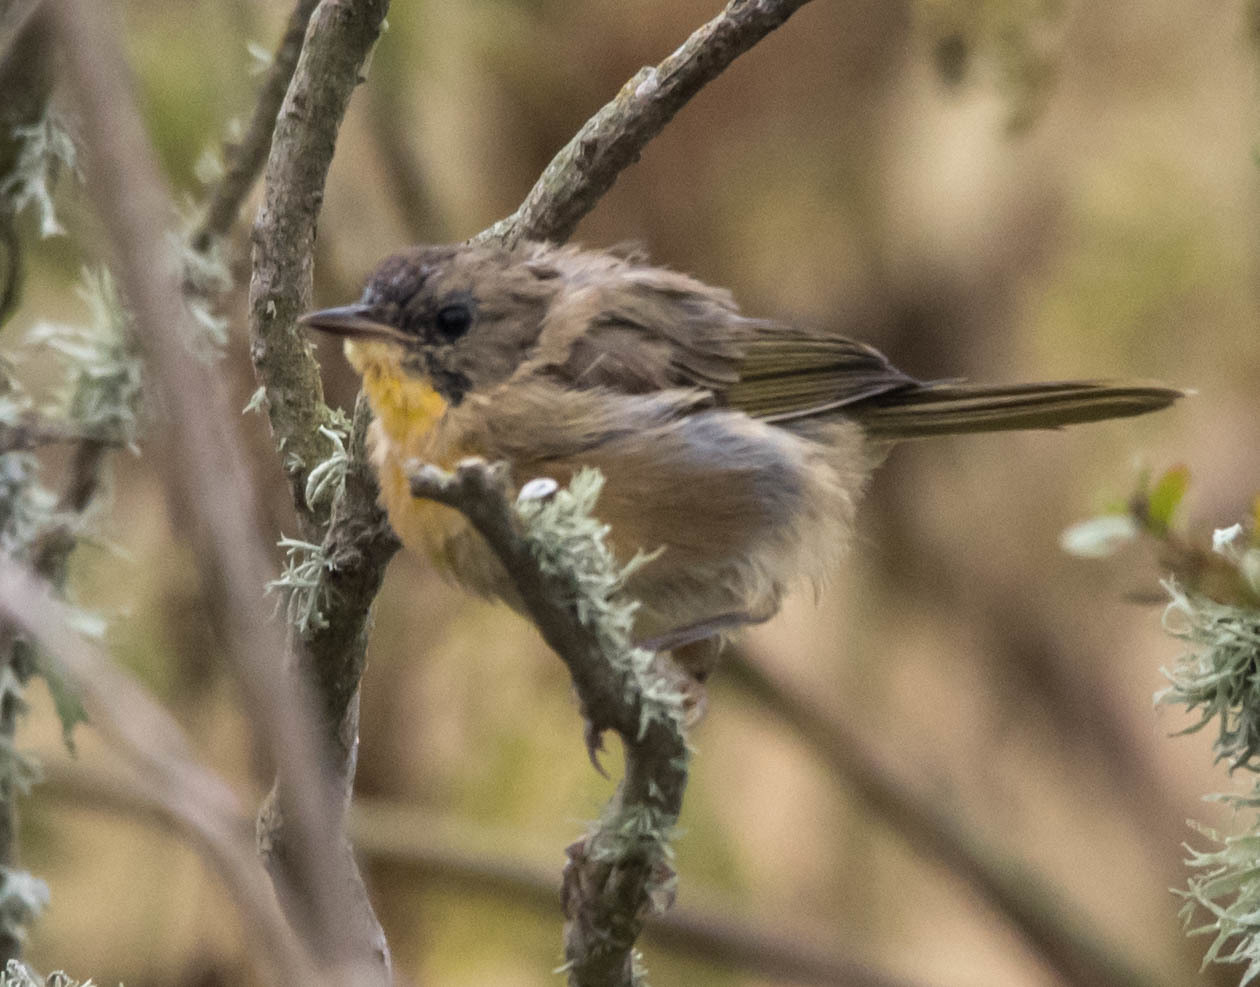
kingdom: Animalia
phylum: Chordata
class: Aves
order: Passeriformes
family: Parulidae
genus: Geothlypis
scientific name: Geothlypis trichas
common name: Common yellowthroat
